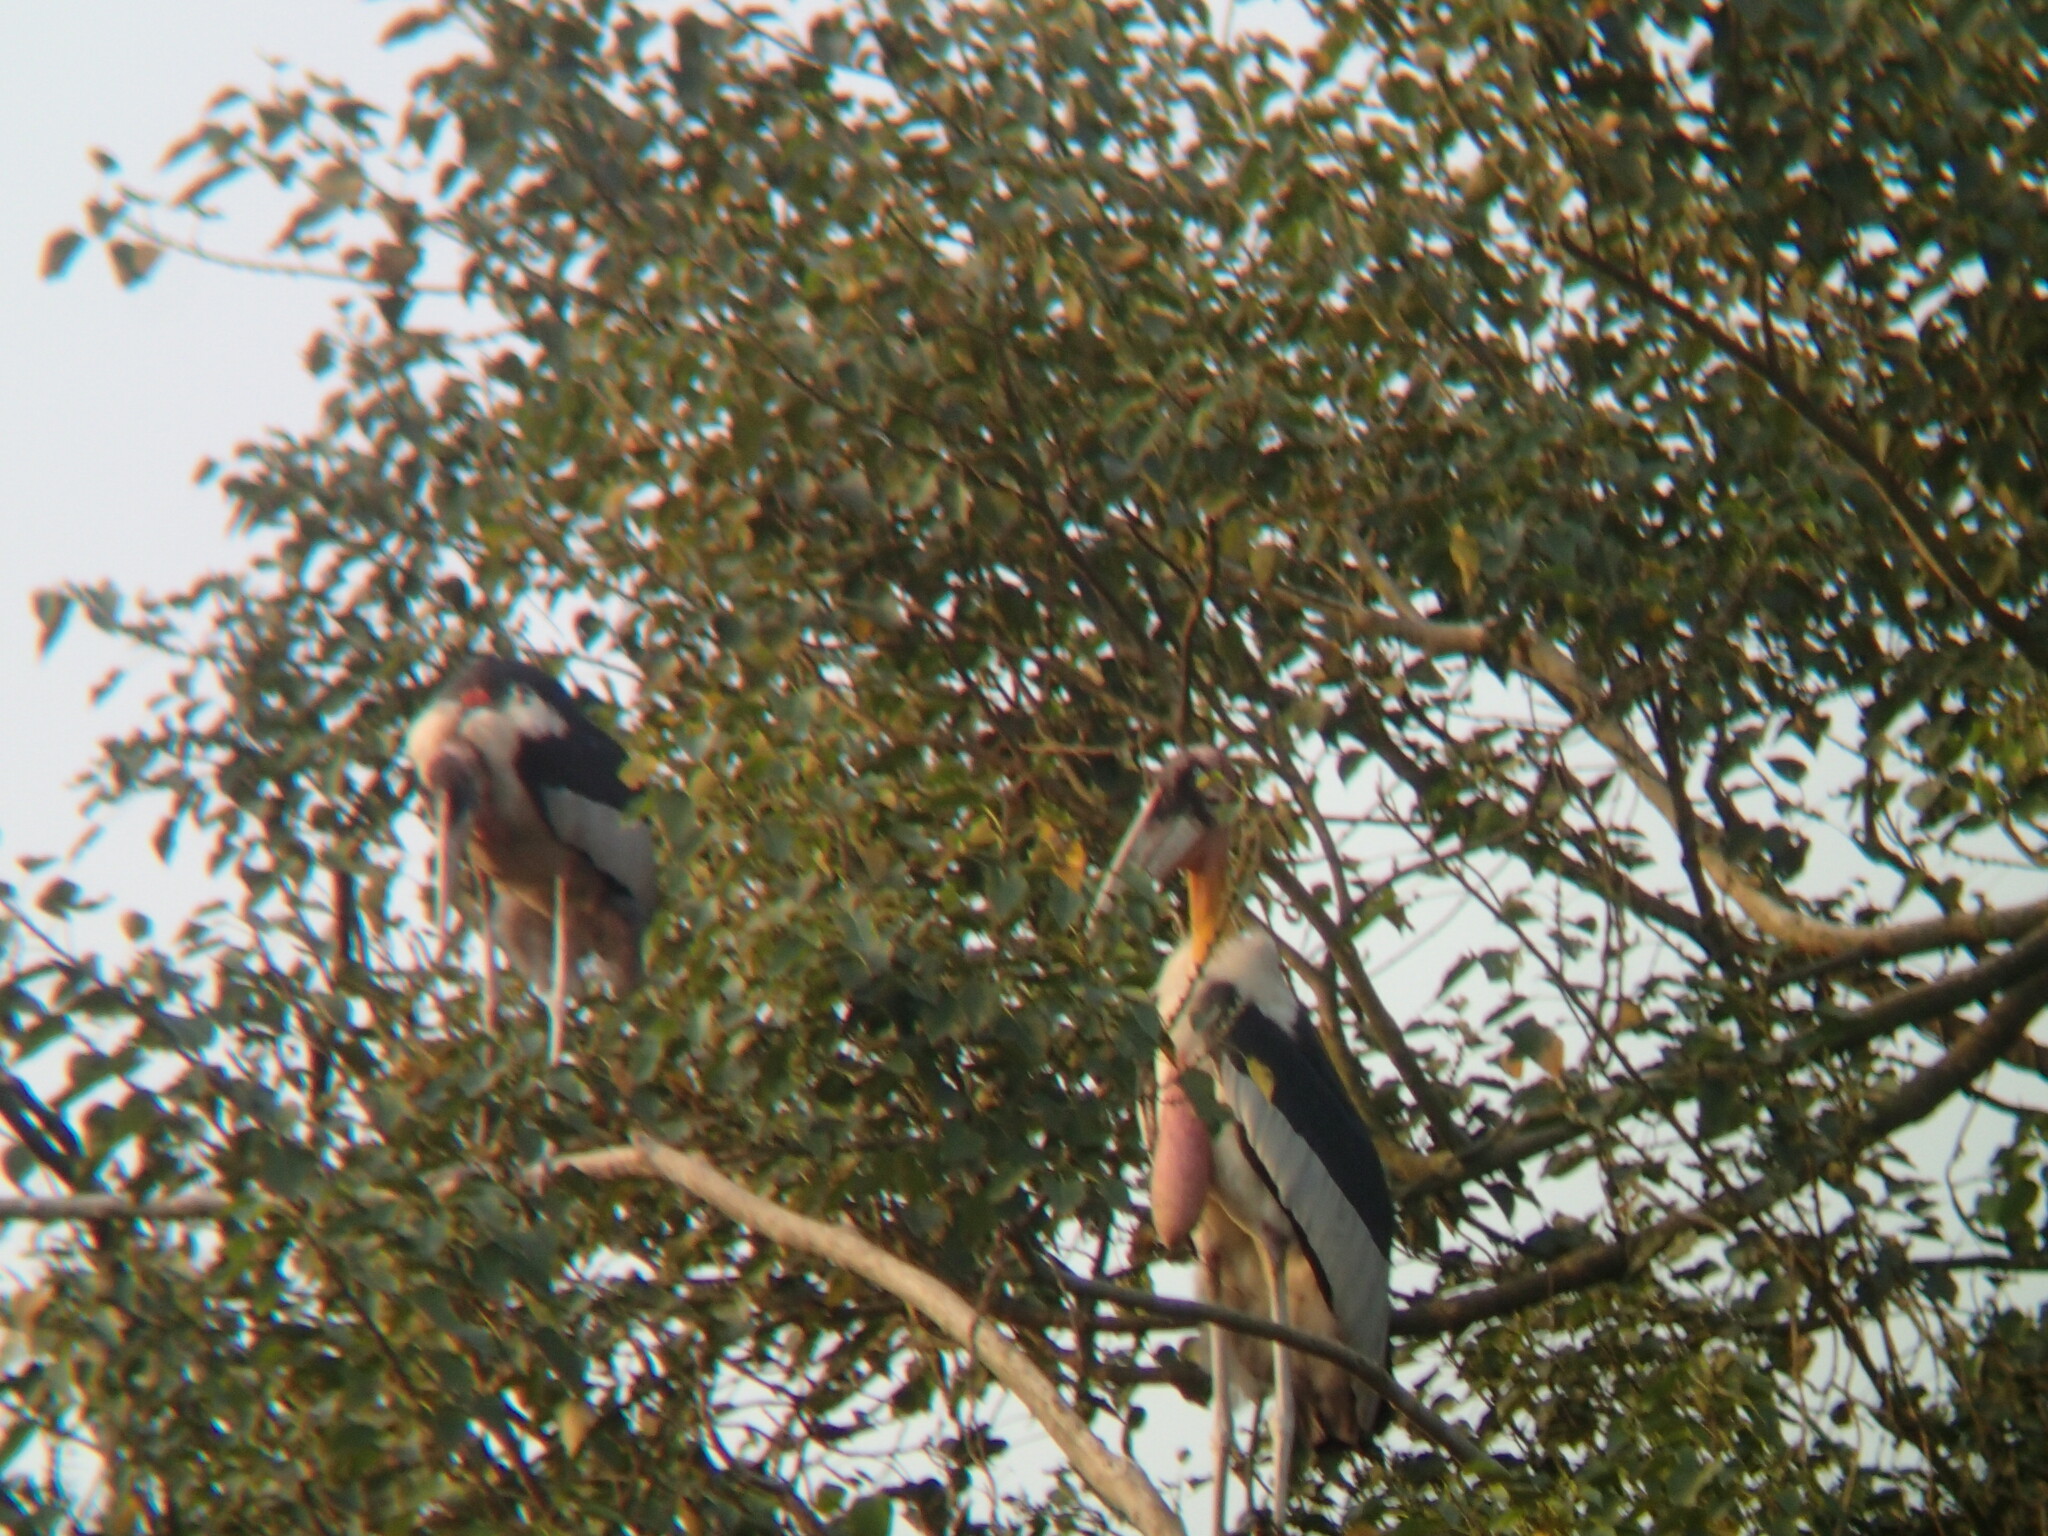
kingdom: Animalia
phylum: Chordata
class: Aves
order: Ciconiiformes
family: Ciconiidae
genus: Leptoptilos
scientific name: Leptoptilos dubius
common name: Greater adjutant
